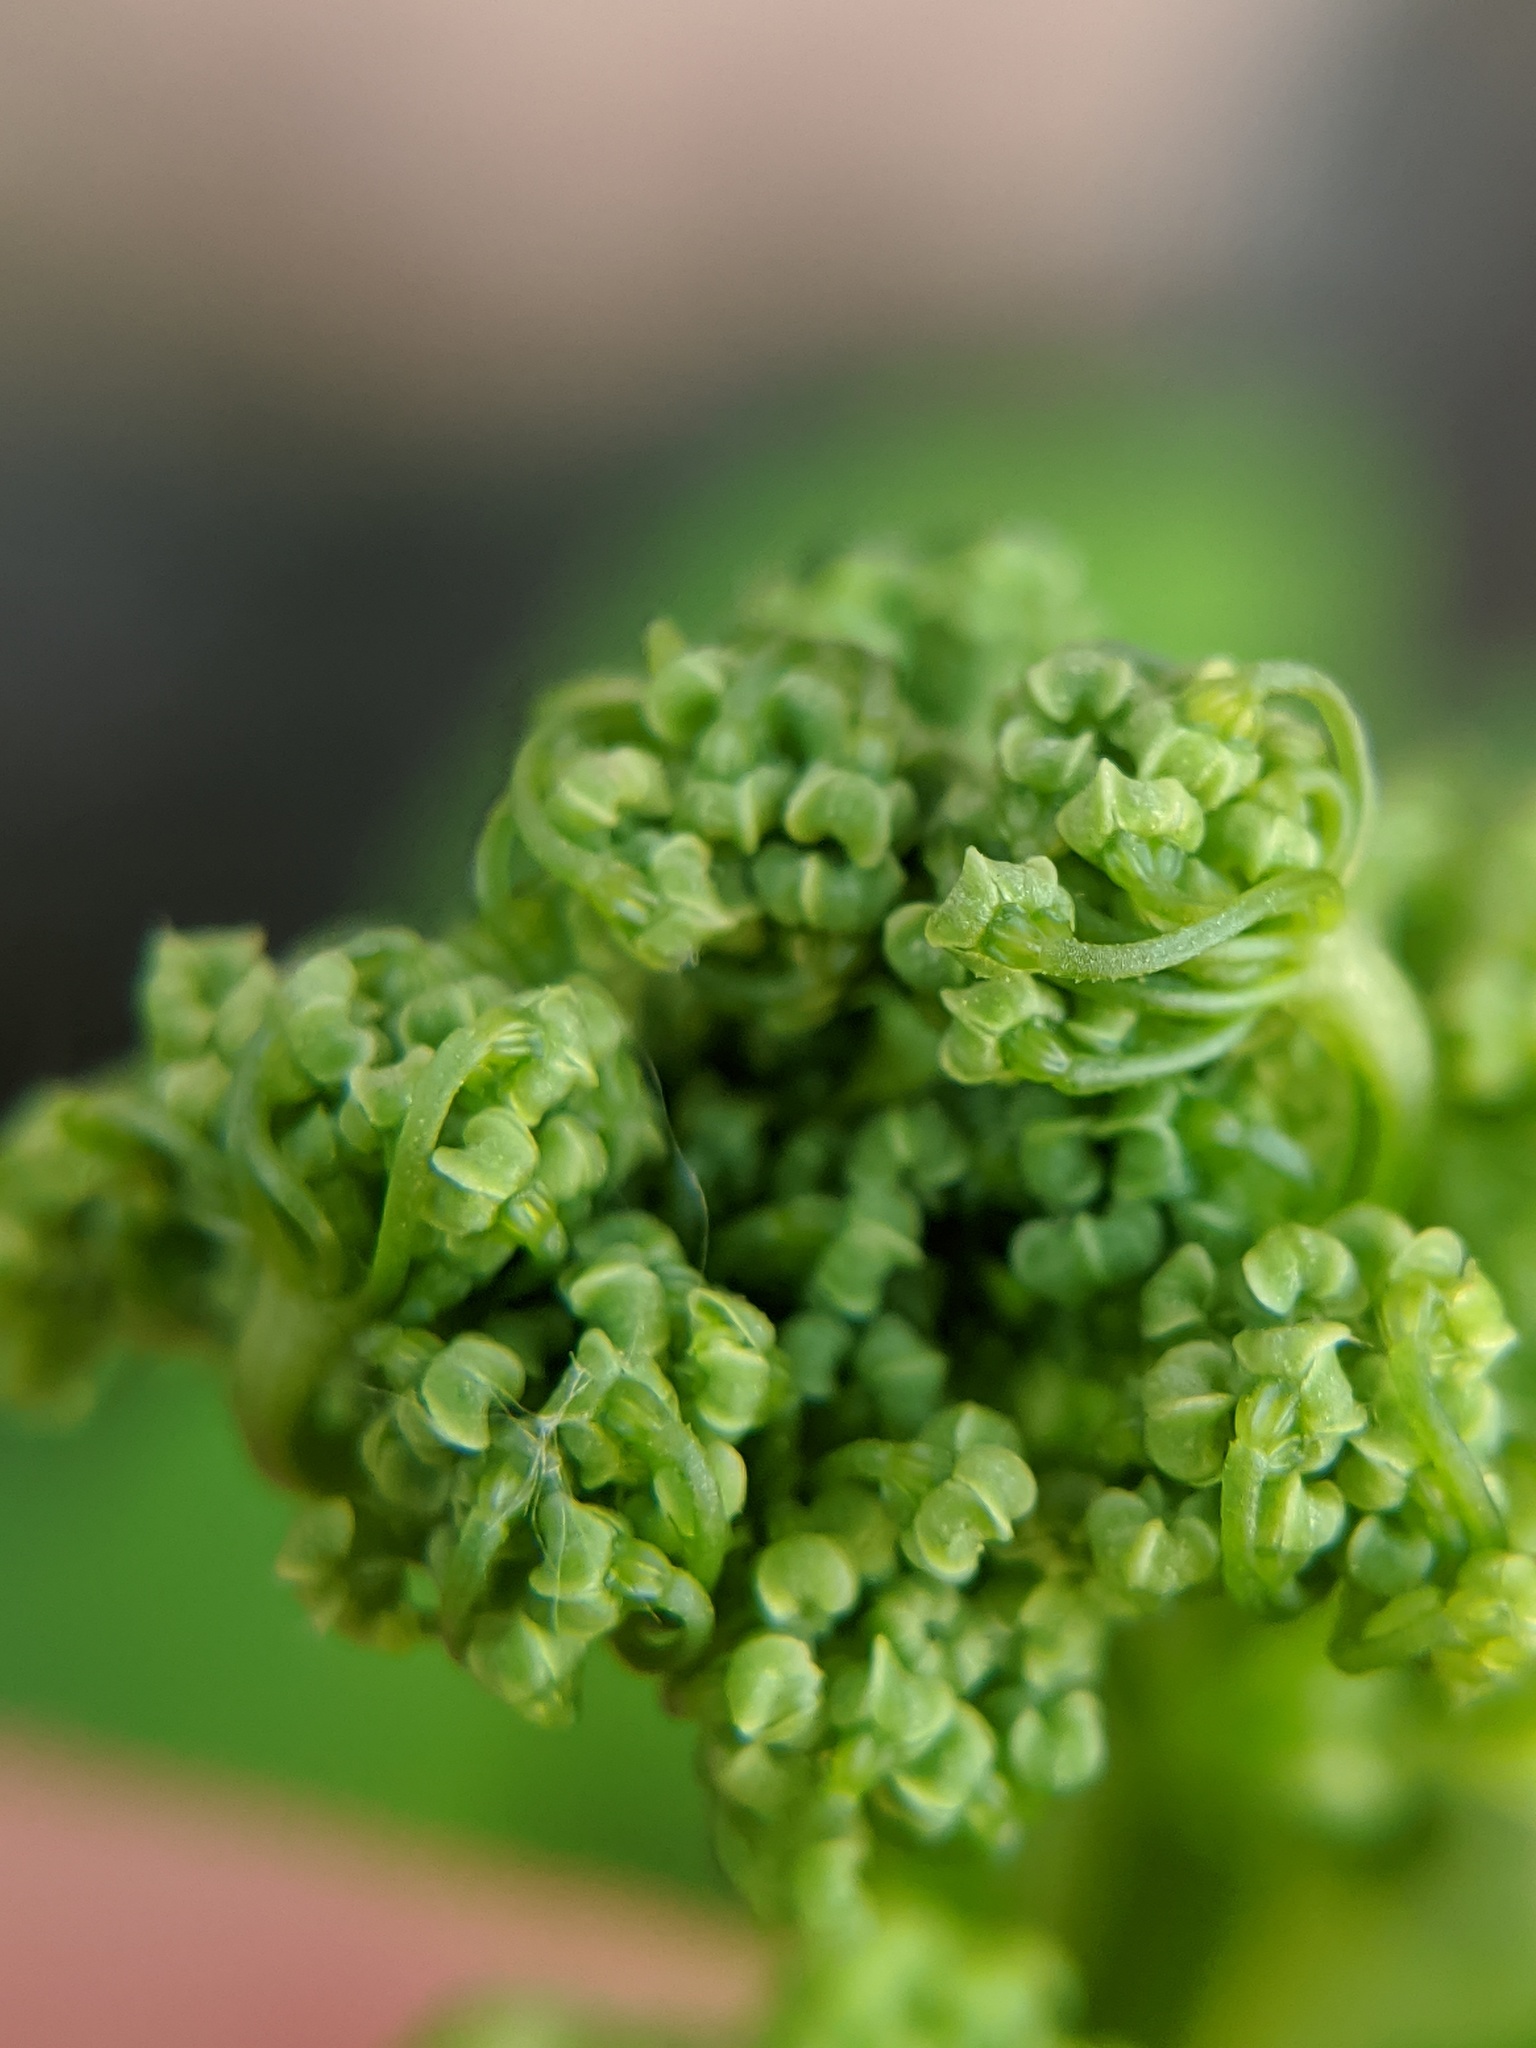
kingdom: Plantae
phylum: Tracheophyta
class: Magnoliopsida
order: Apiales
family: Apiaceae
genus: Aegopodium
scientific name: Aegopodium podagraria
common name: Ground-elder
